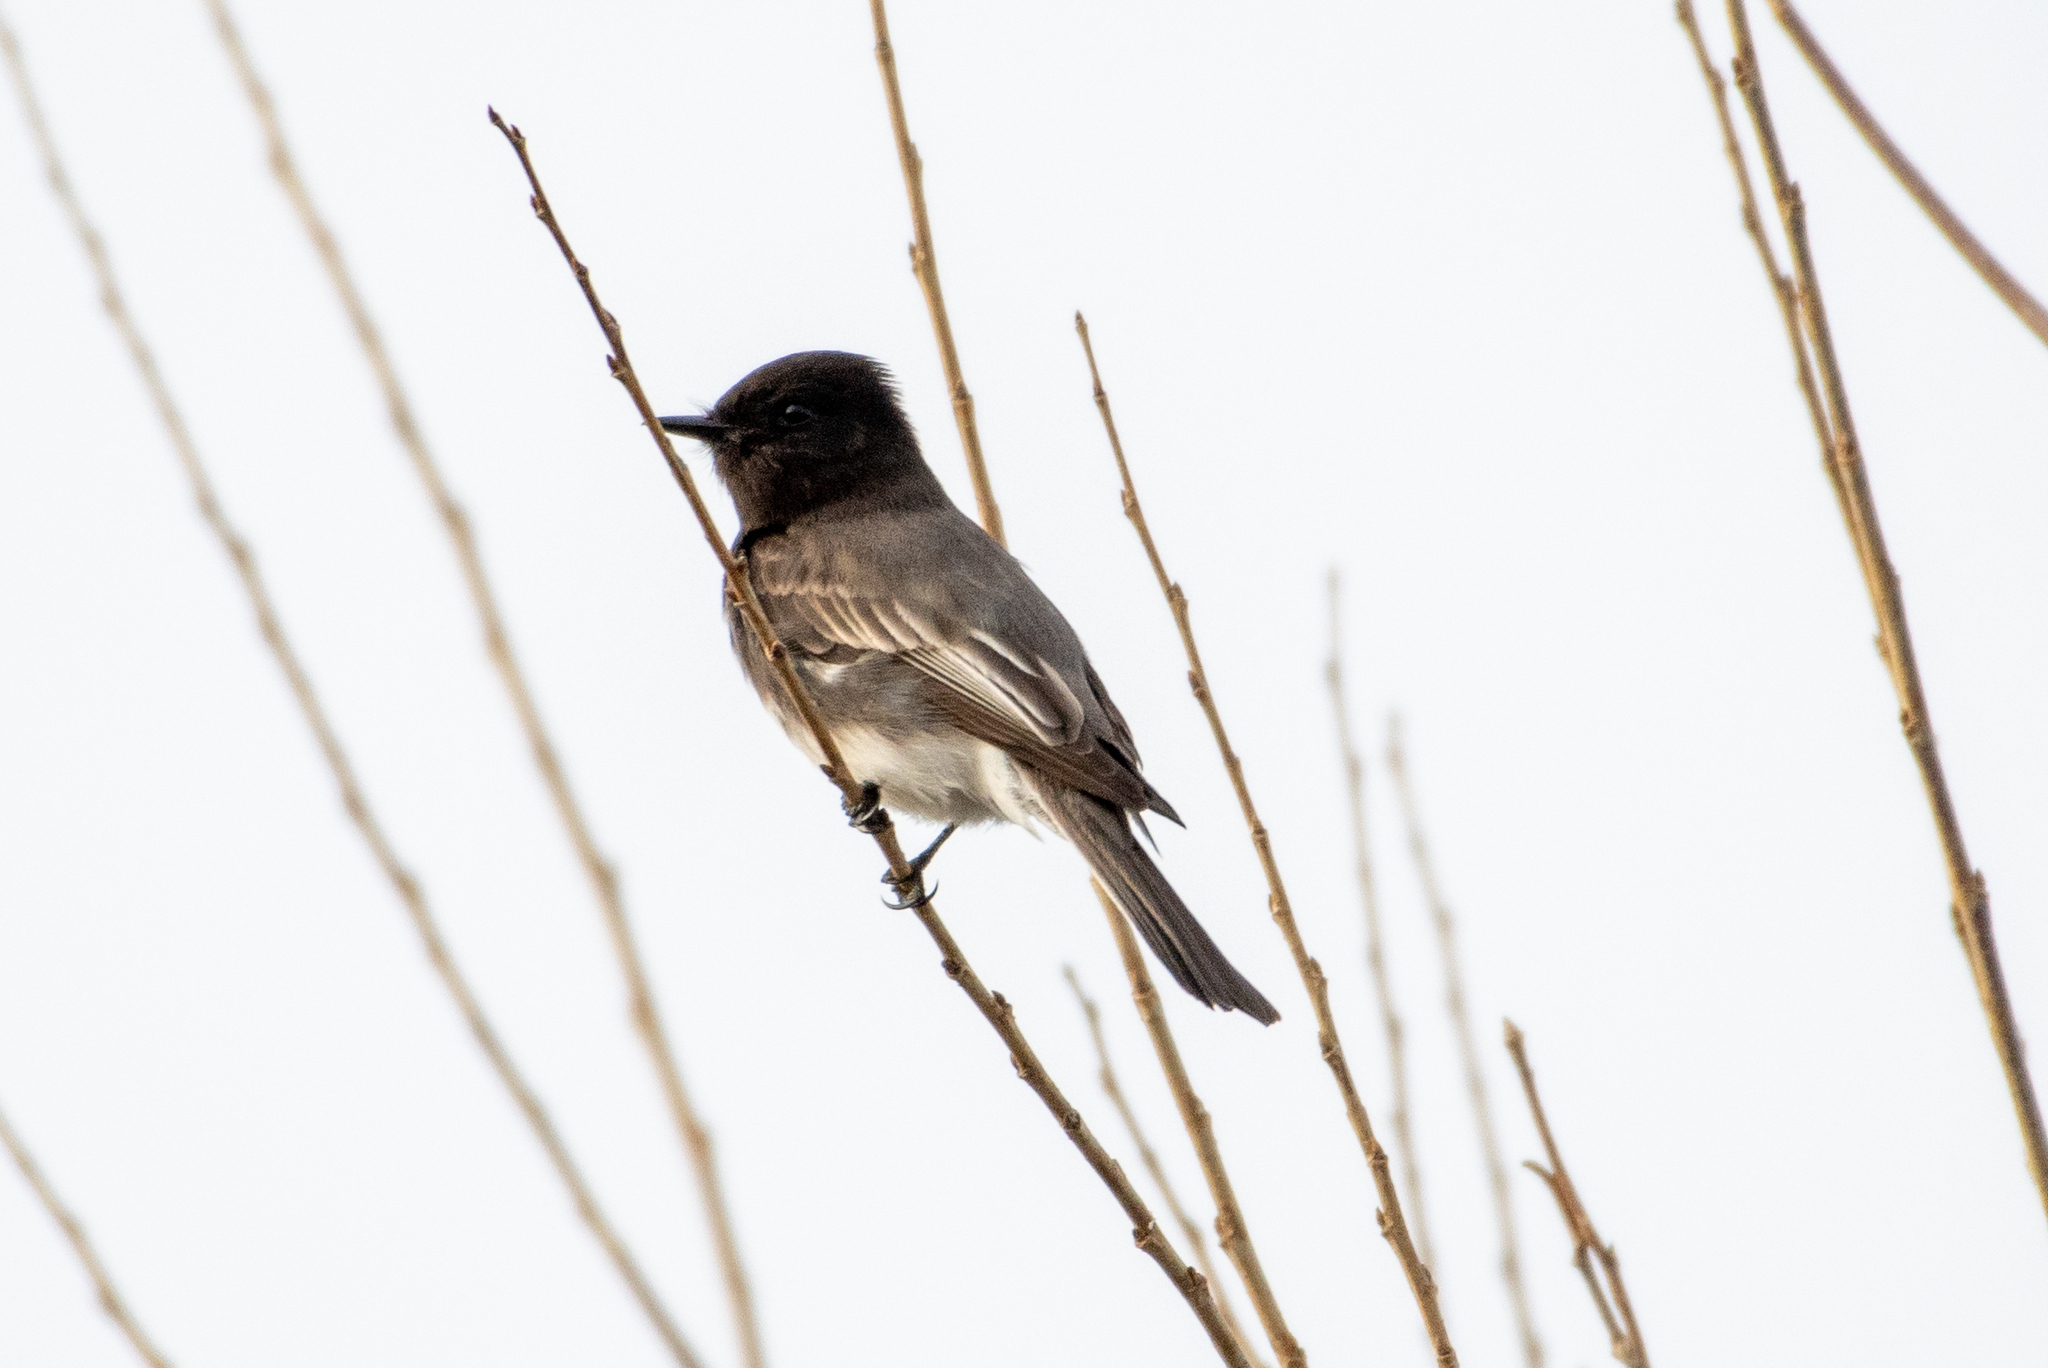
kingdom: Animalia
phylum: Chordata
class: Aves
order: Passeriformes
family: Tyrannidae
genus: Sayornis
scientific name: Sayornis nigricans
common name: Black phoebe
